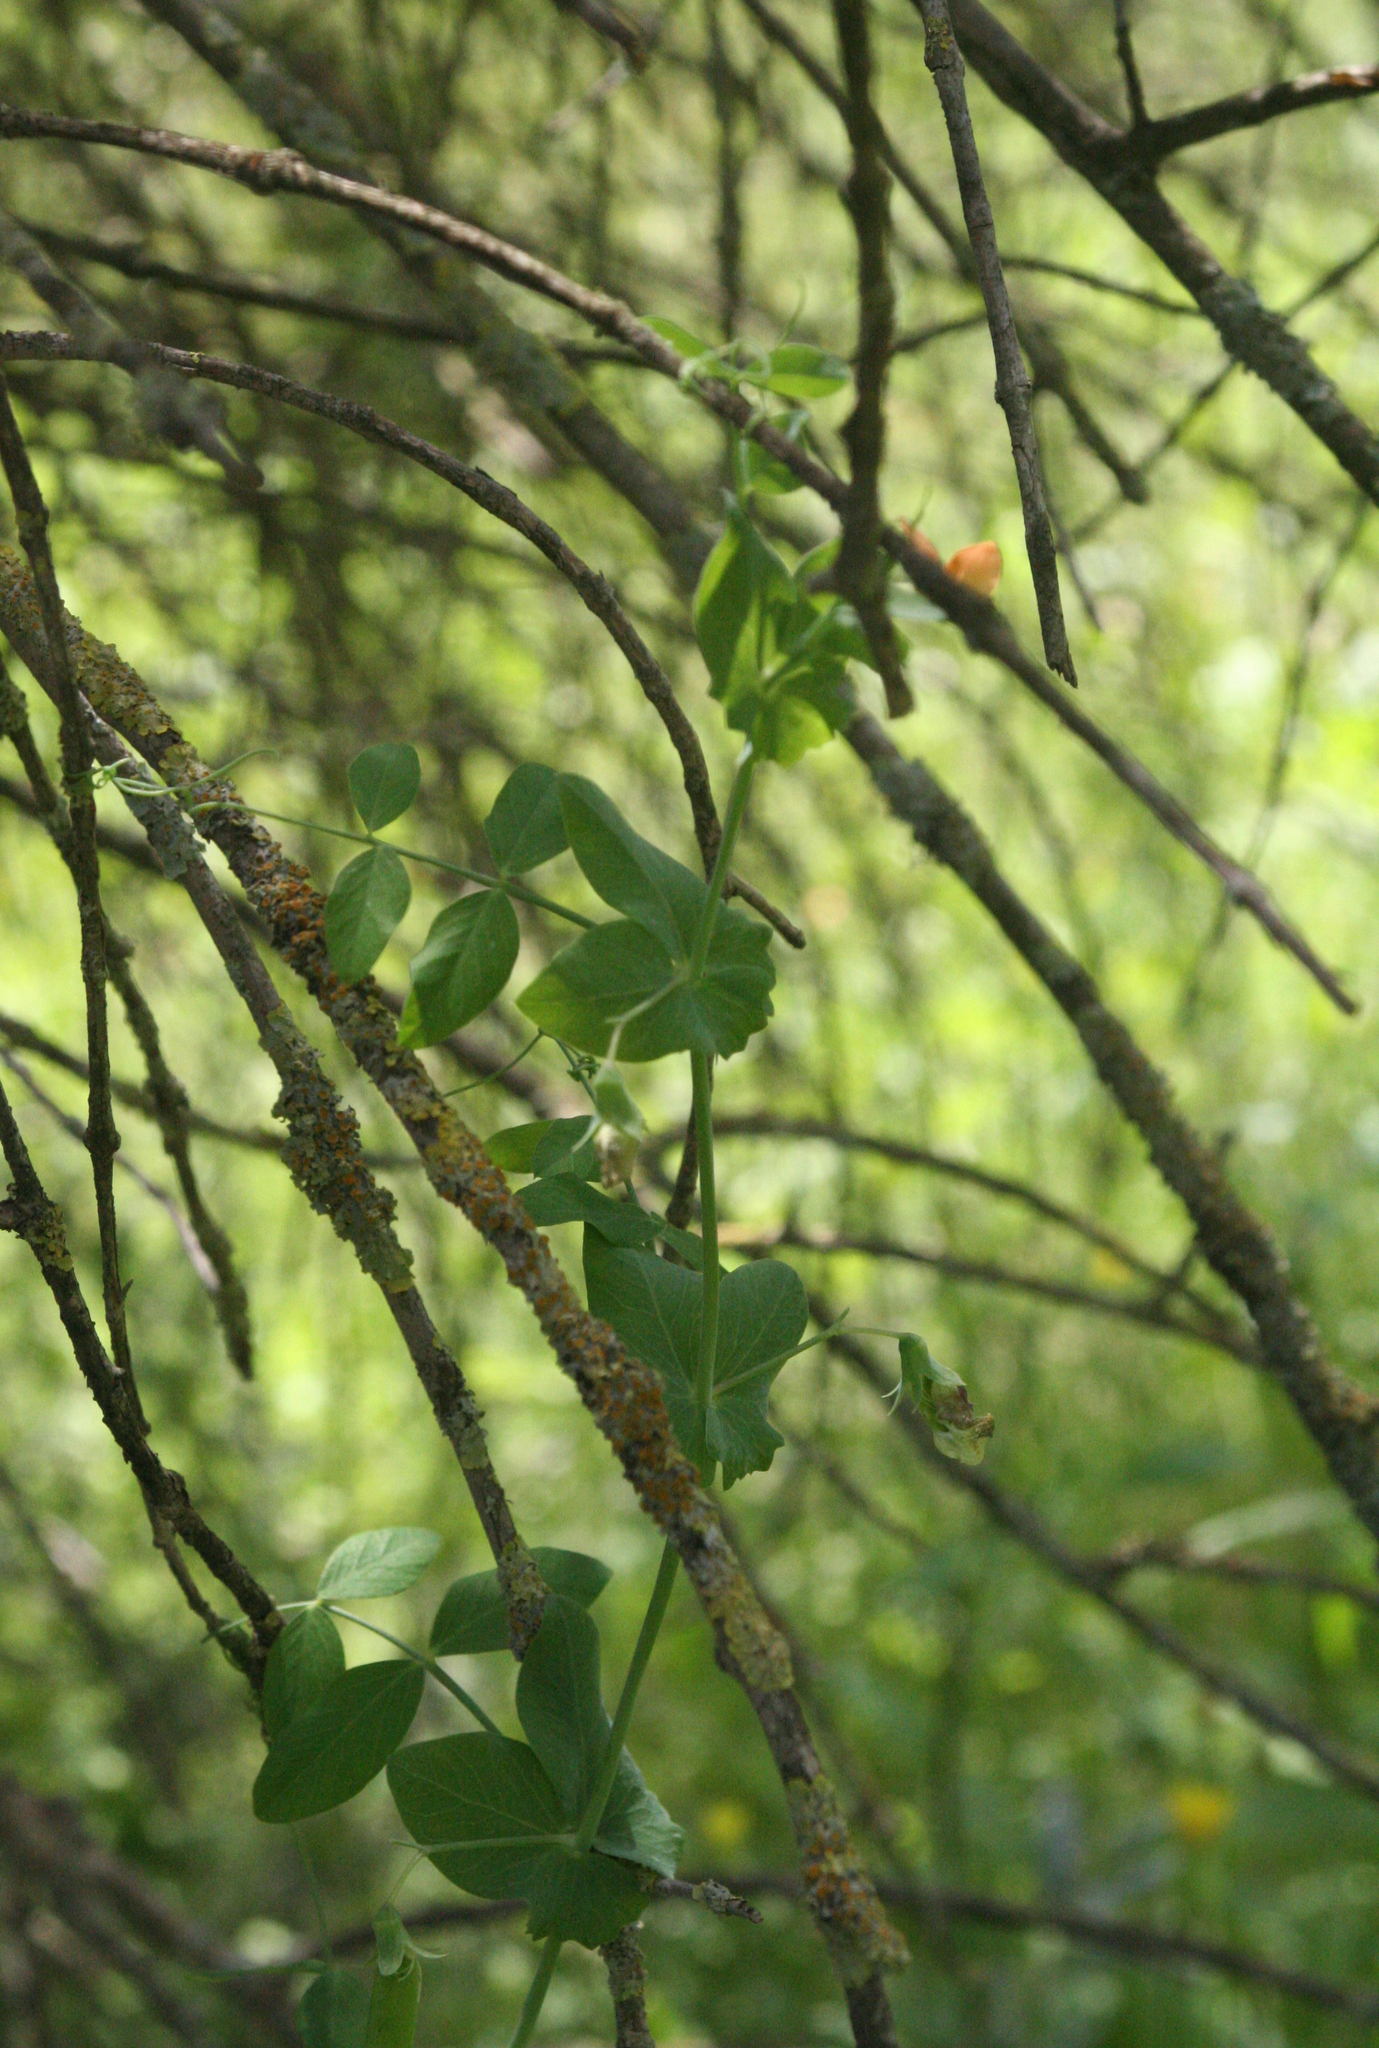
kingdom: Plantae
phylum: Tracheophyta
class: Magnoliopsida
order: Fabales
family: Fabaceae
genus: Lathyrus
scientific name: Lathyrus fulvus
